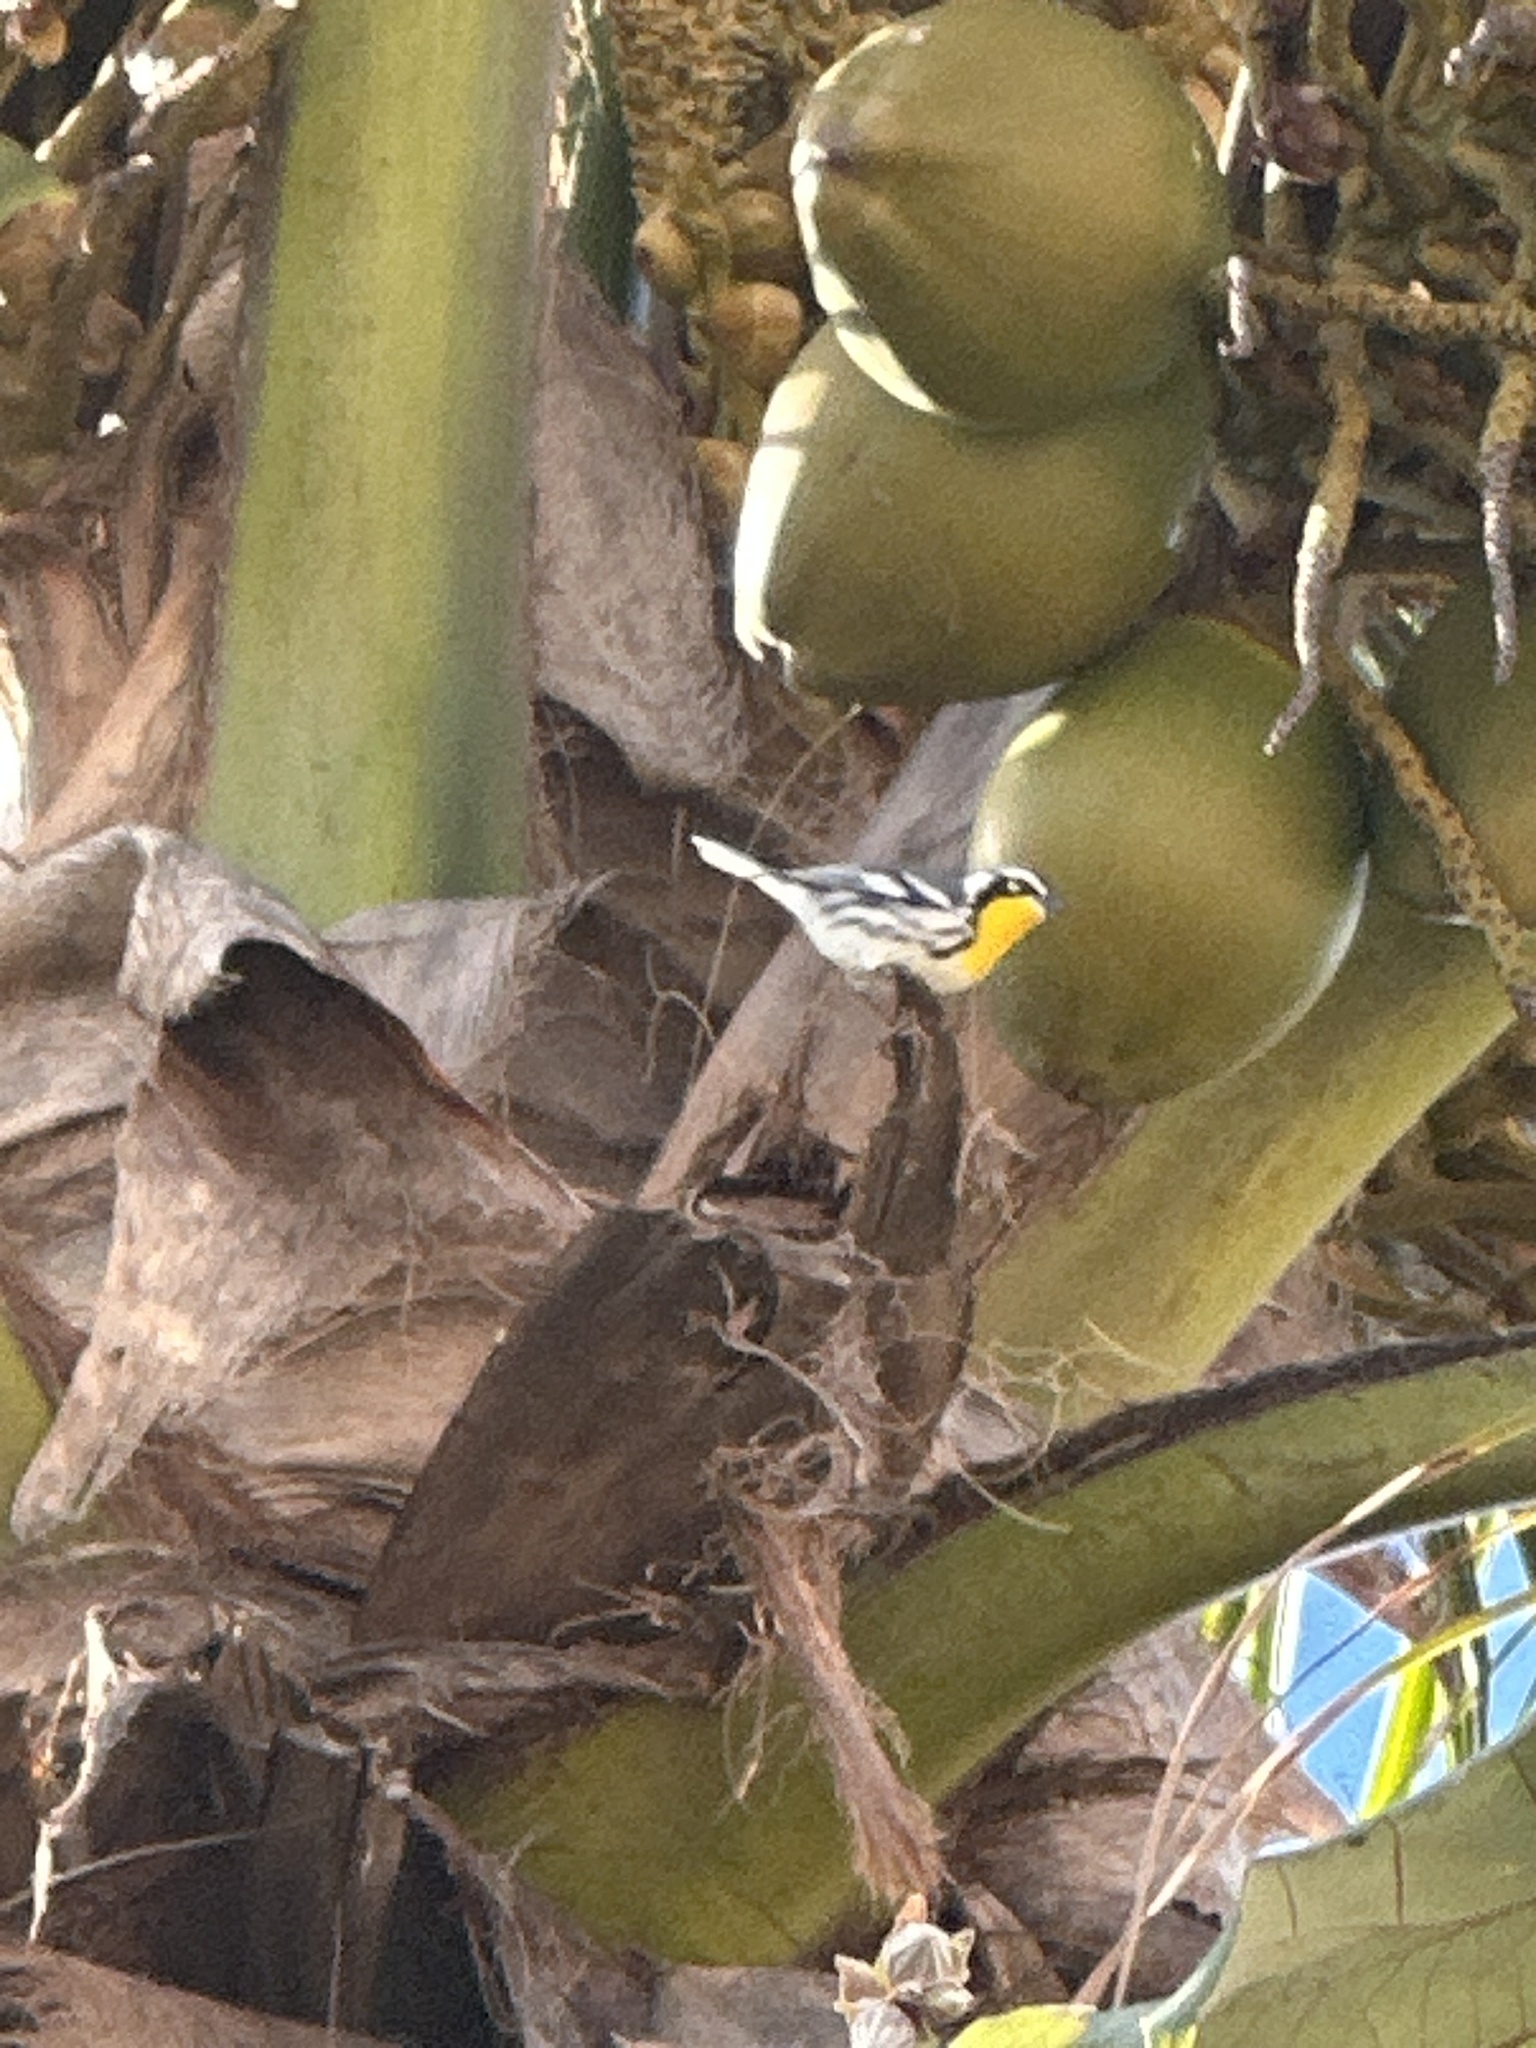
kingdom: Animalia
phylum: Chordata
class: Aves
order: Passeriformes
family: Parulidae
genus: Setophaga
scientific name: Setophaga dominica
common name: Yellow-throated warbler
